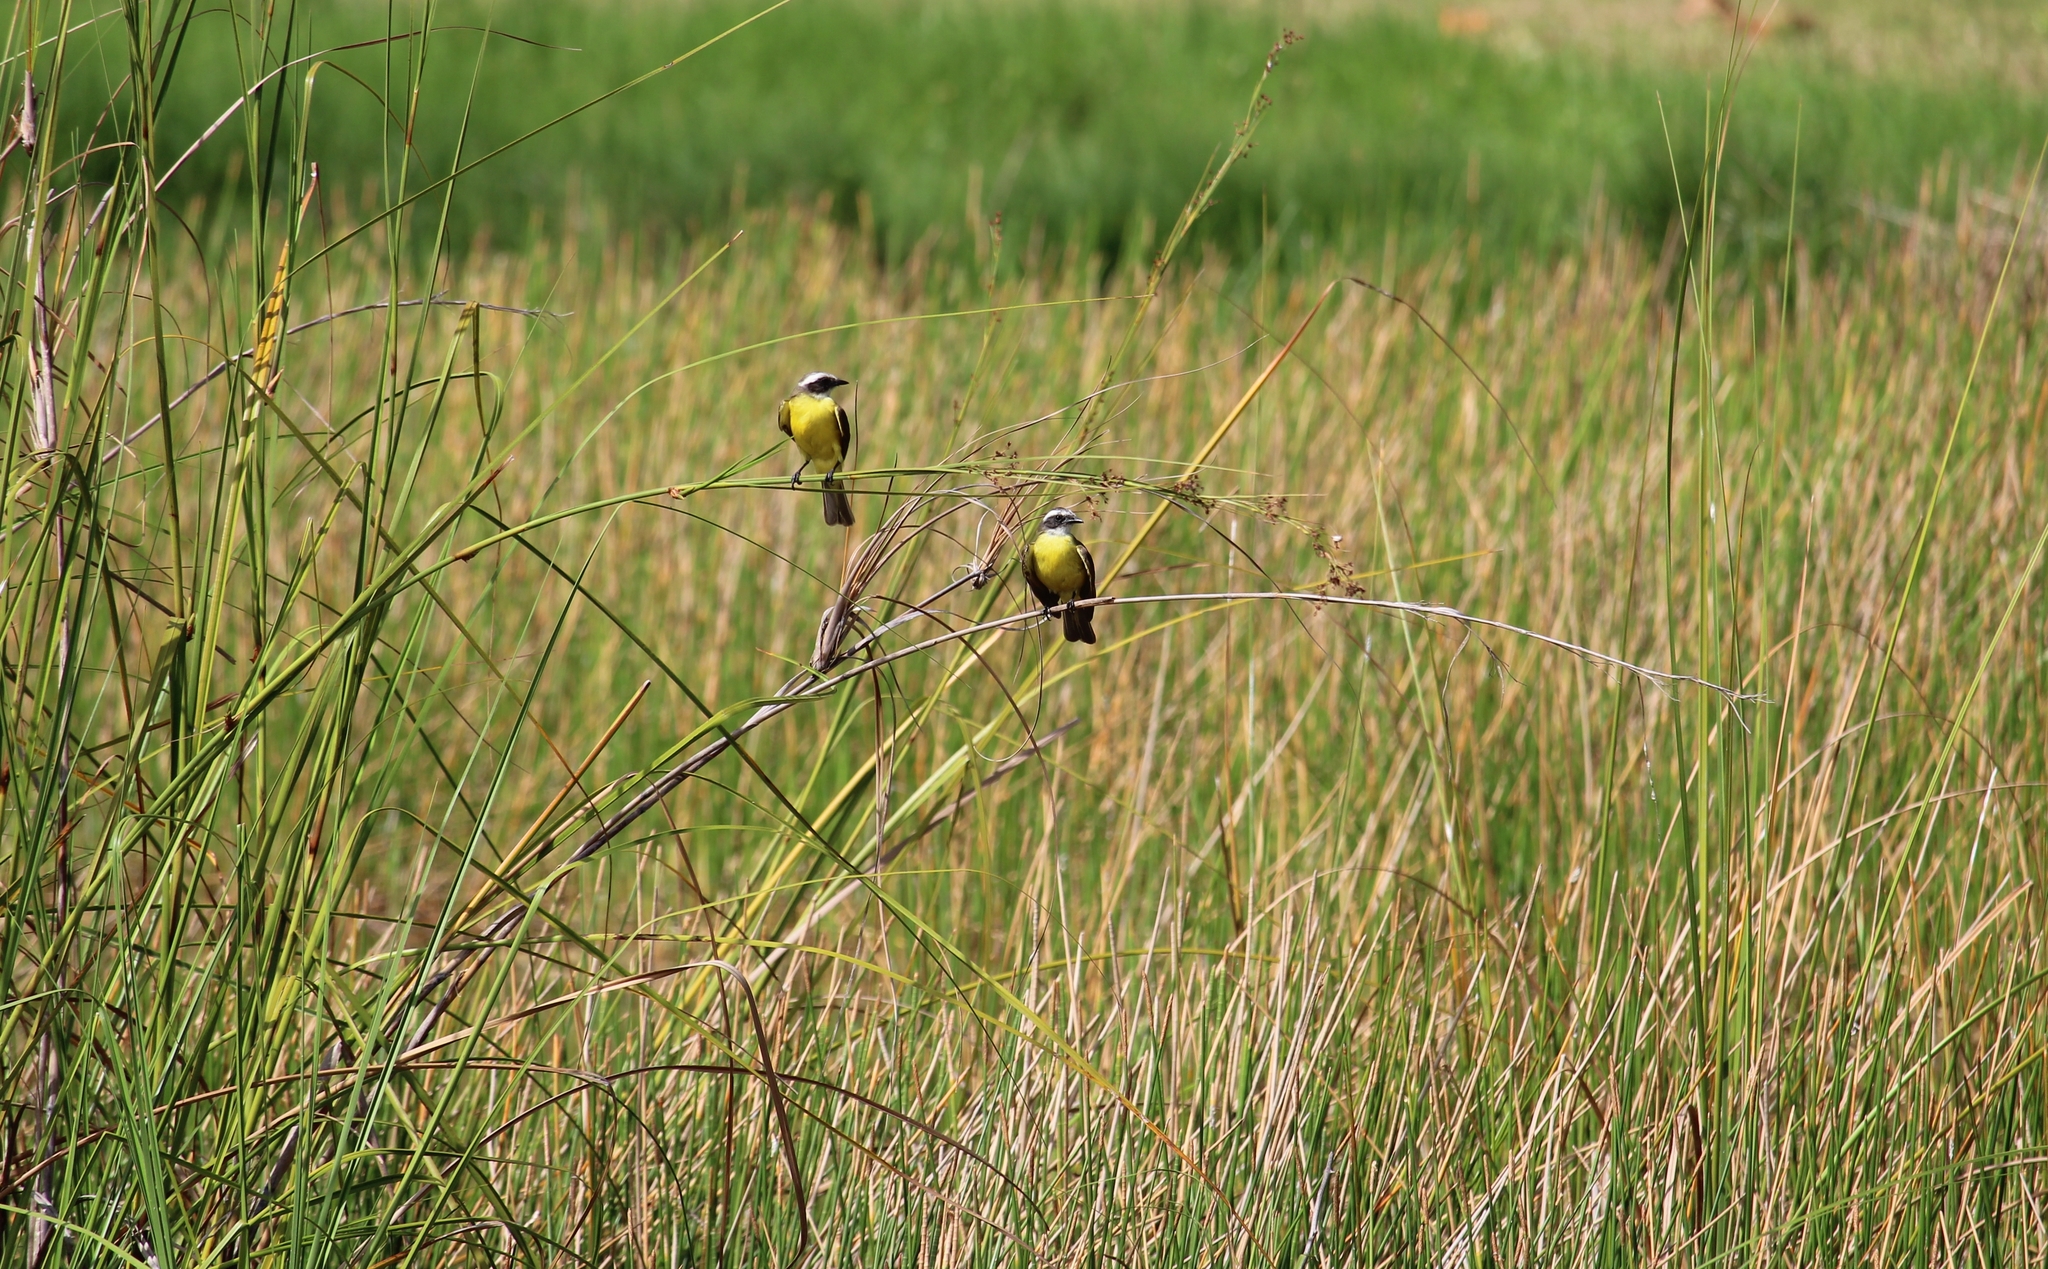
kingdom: Animalia
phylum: Chordata
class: Aves
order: Passeriformes
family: Tyrannidae
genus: Myiozetetes
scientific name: Myiozetetes similis
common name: Social flycatcher
